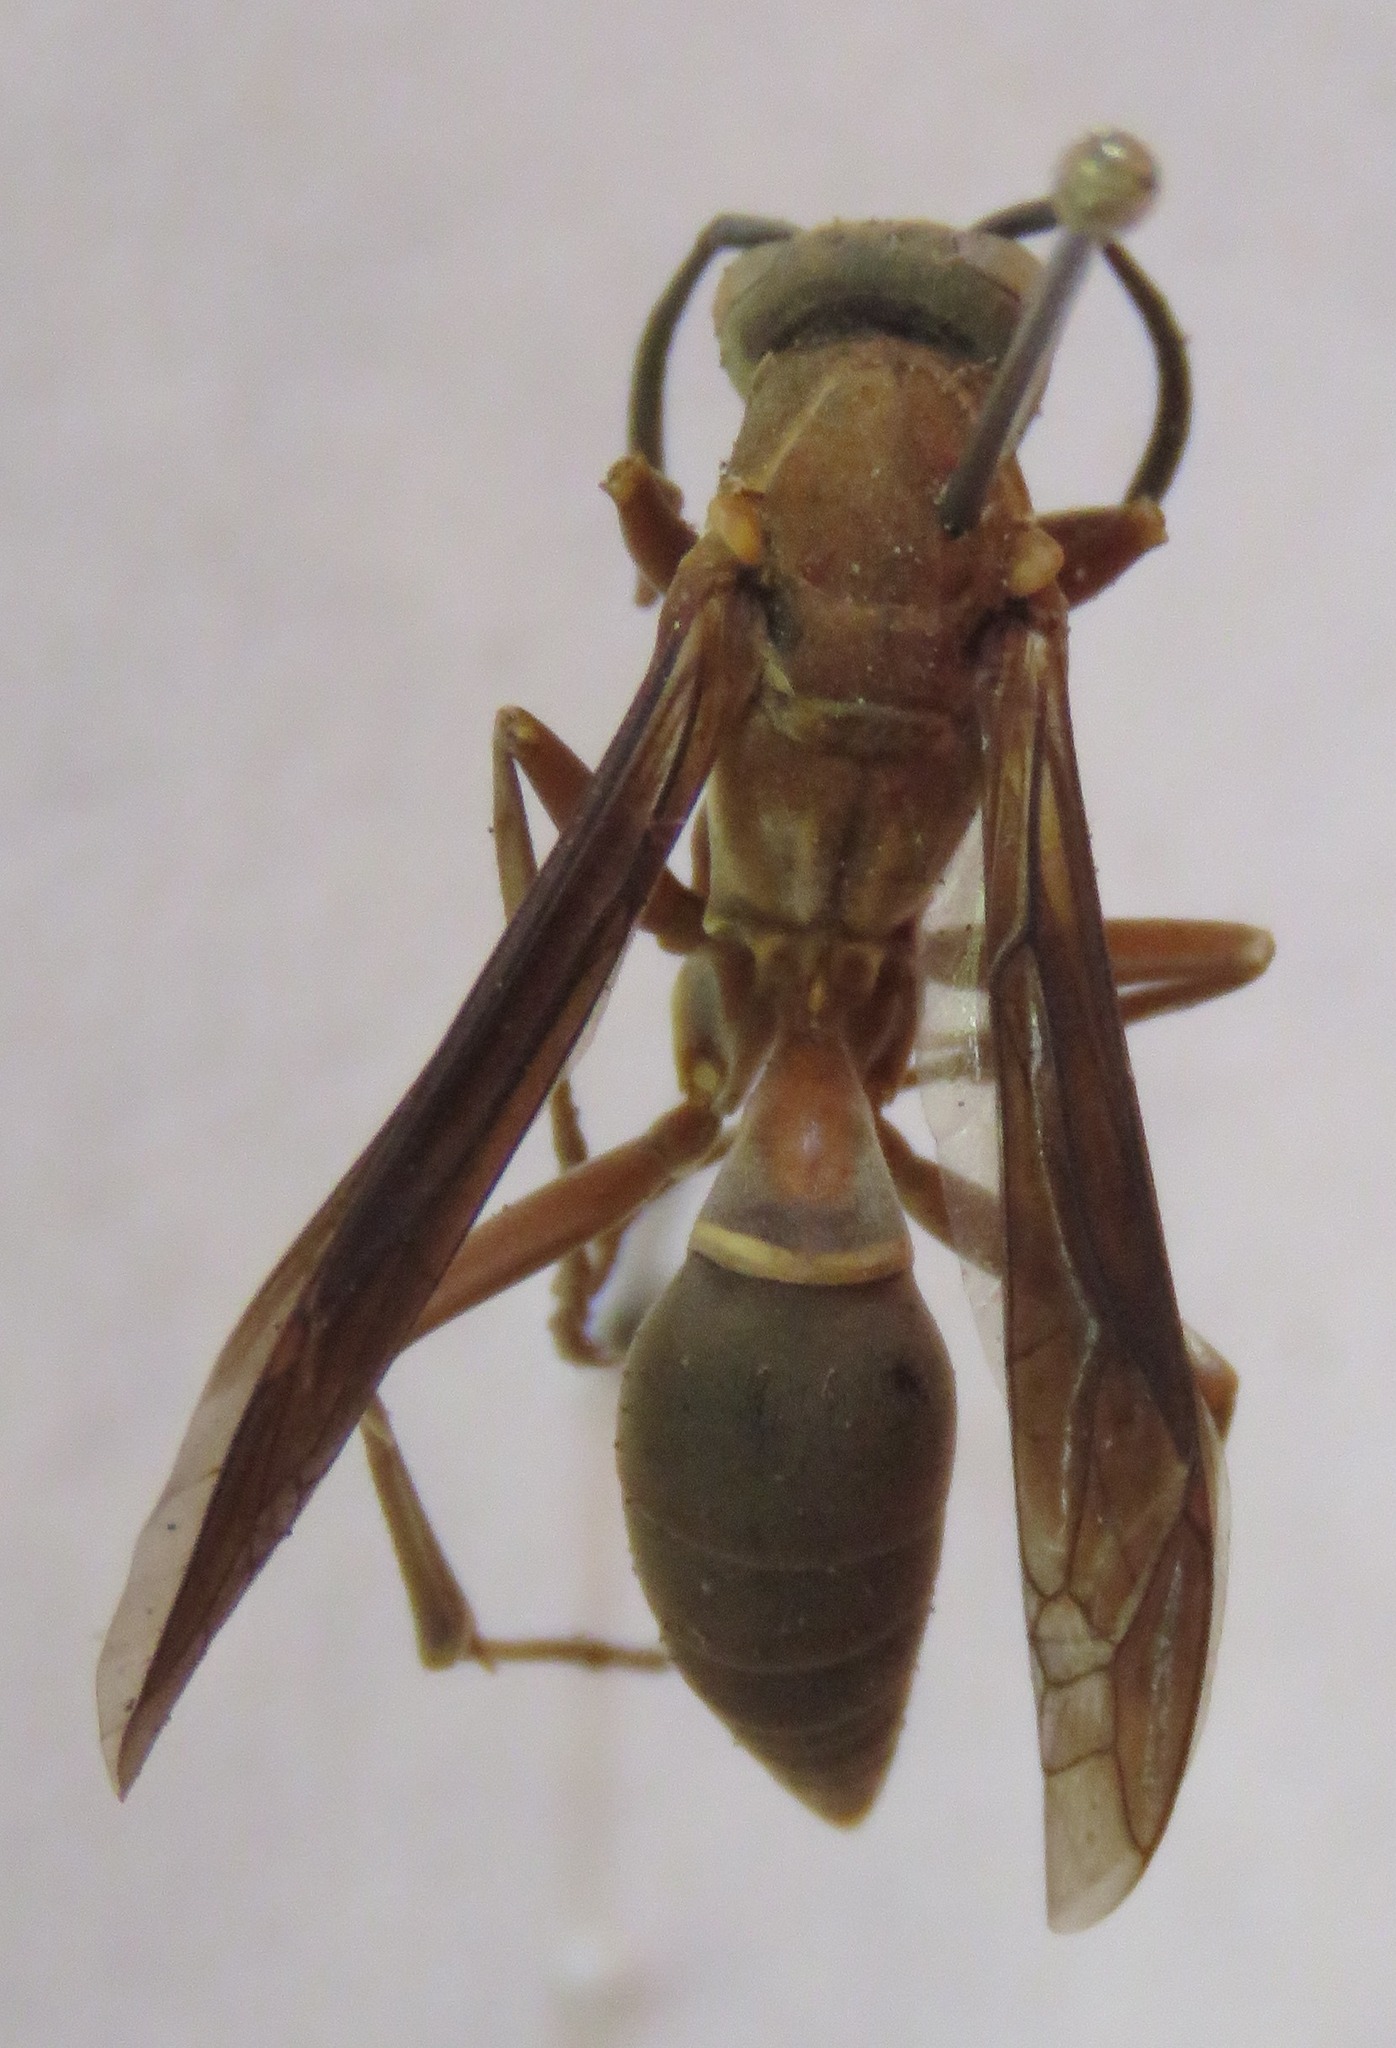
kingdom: Animalia
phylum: Arthropoda
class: Insecta
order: Hymenoptera
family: Eumenidae
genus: Polistes
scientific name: Polistes subsericeus
